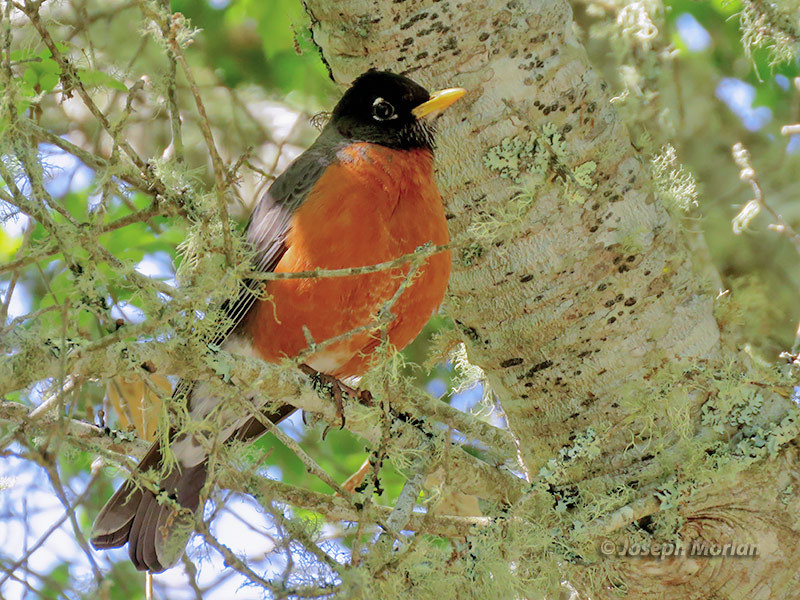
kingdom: Animalia
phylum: Chordata
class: Aves
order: Passeriformes
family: Turdidae
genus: Turdus
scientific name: Turdus migratorius
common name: American robin
